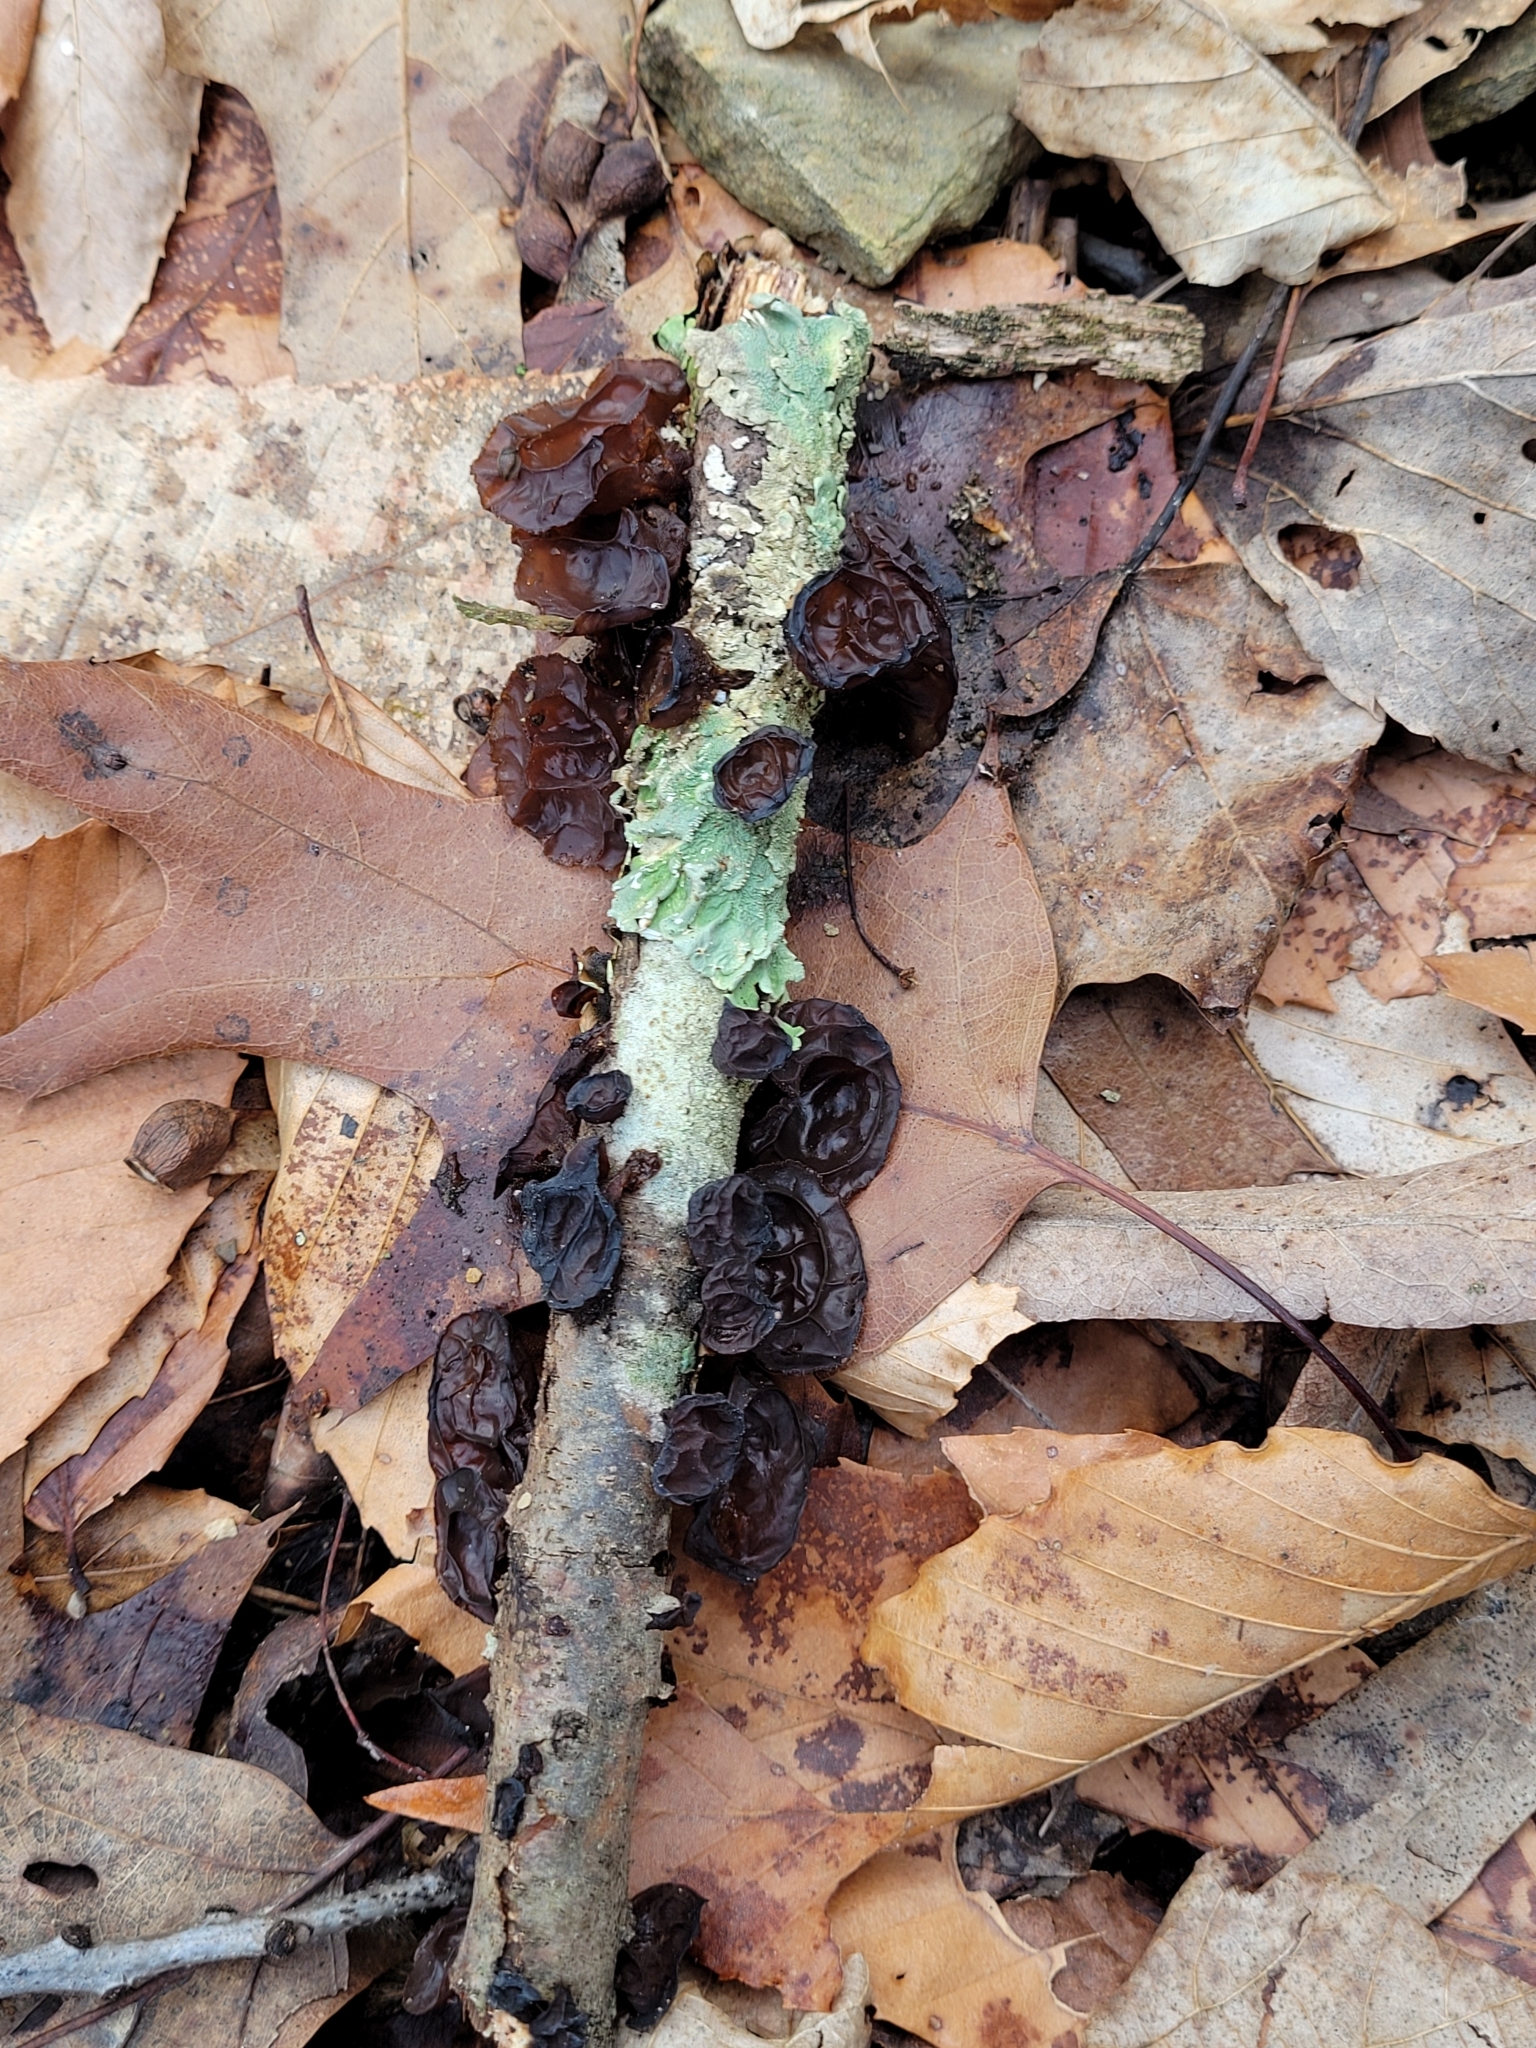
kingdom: Fungi
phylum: Basidiomycota
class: Agaricomycetes
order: Auriculariales
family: Auriculariaceae
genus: Exidia
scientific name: Exidia
